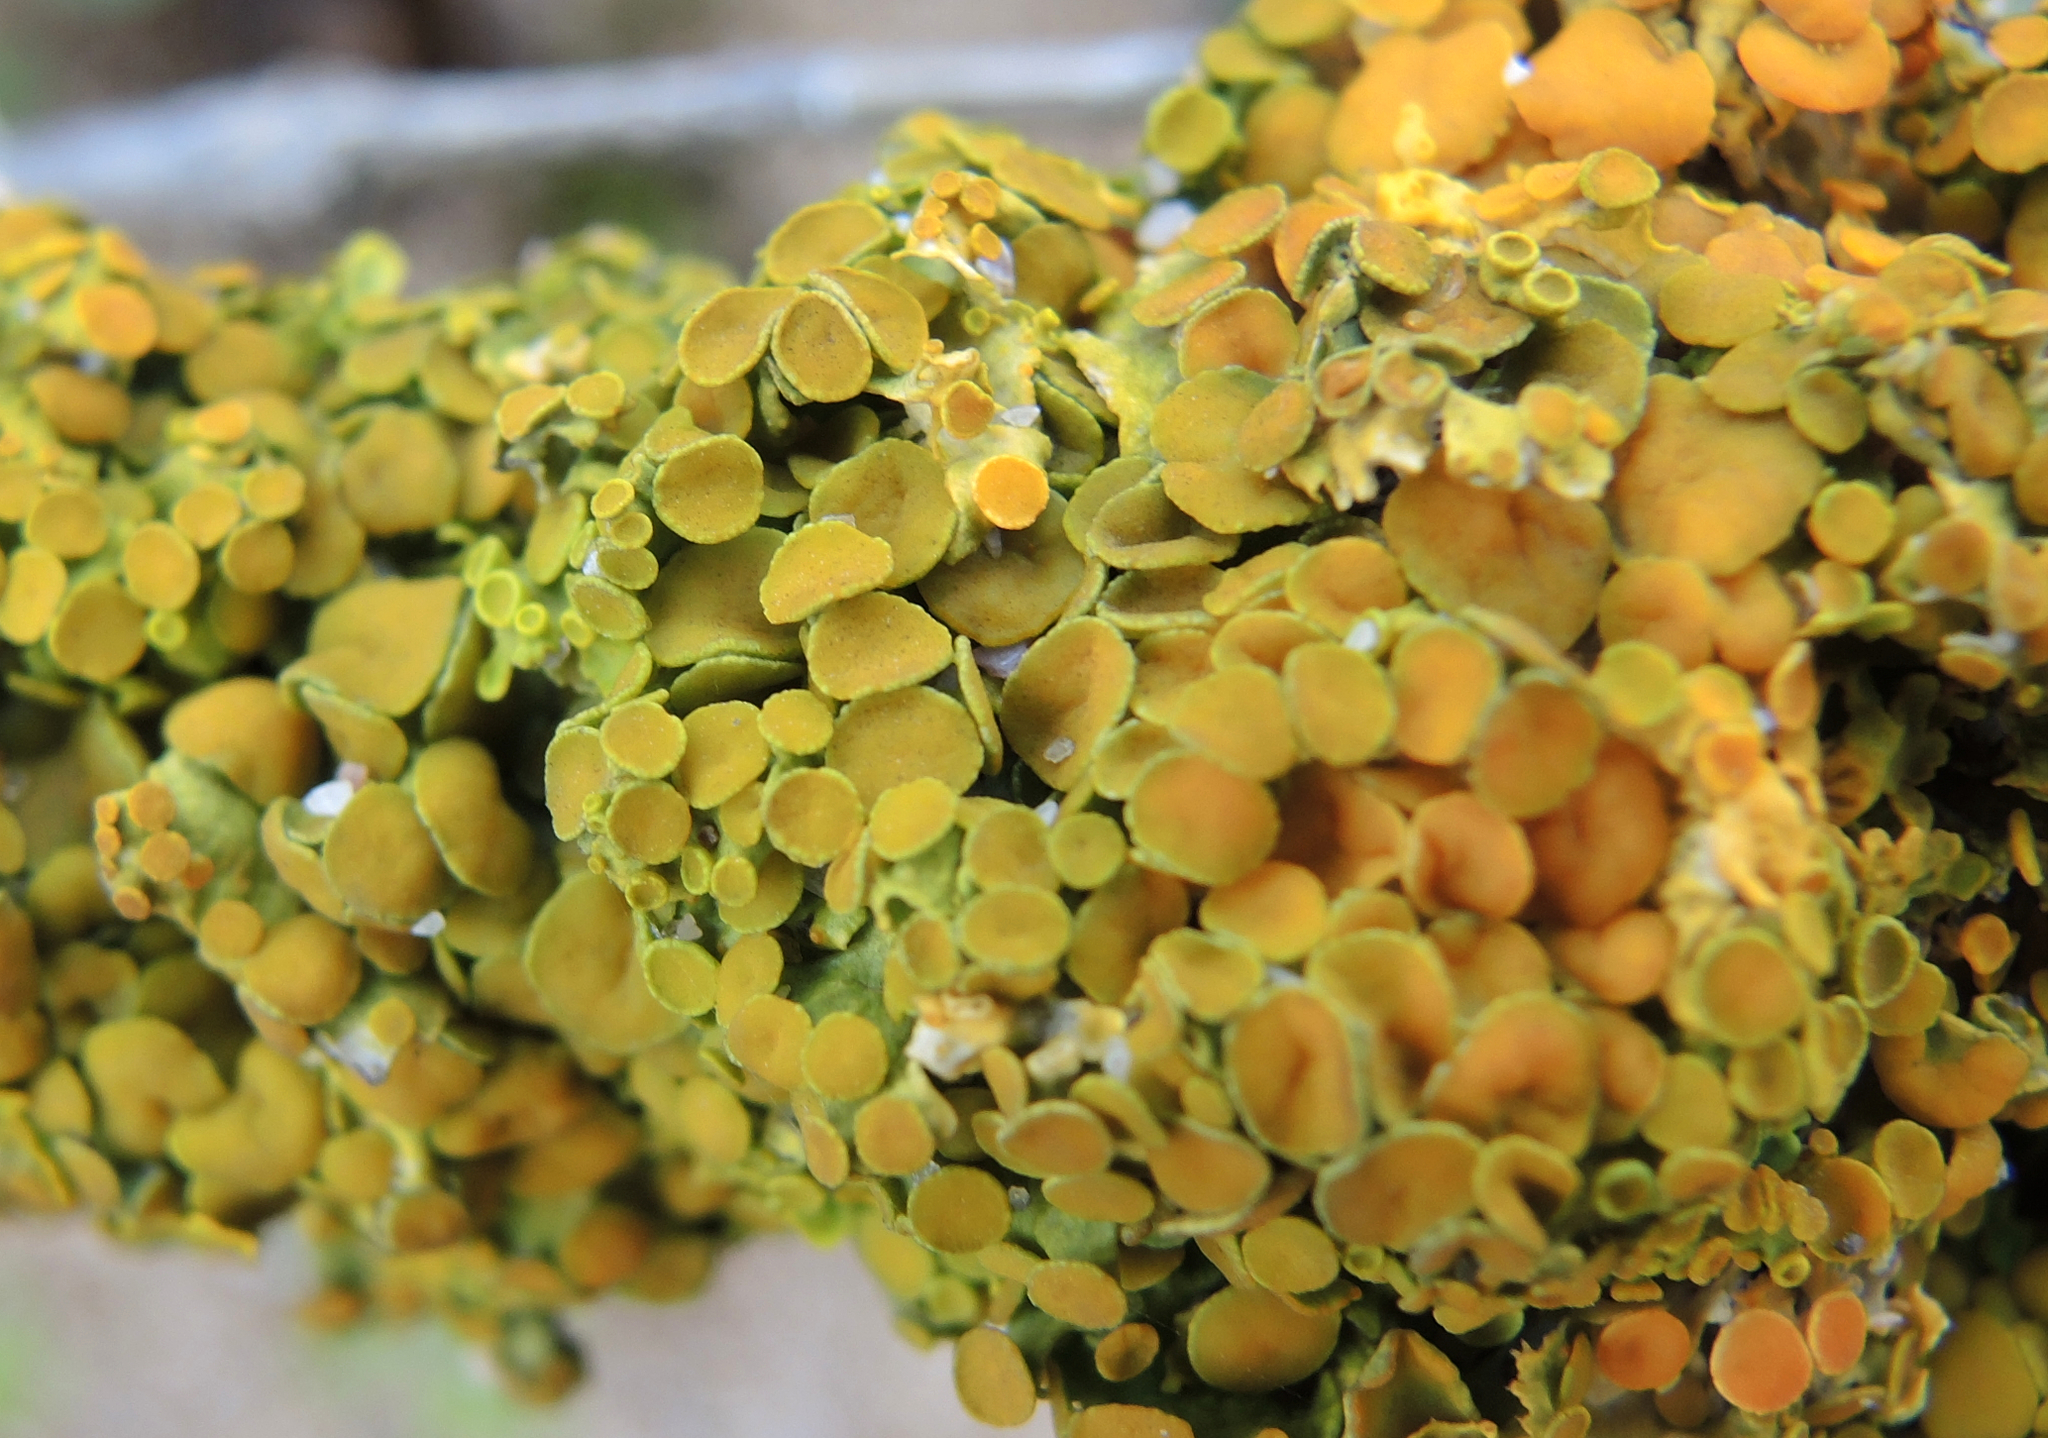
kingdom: Fungi
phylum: Ascomycota
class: Lecanoromycetes
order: Teloschistales
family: Teloschistaceae
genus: Xanthoria
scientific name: Xanthoria parietina
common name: Common orange lichen
